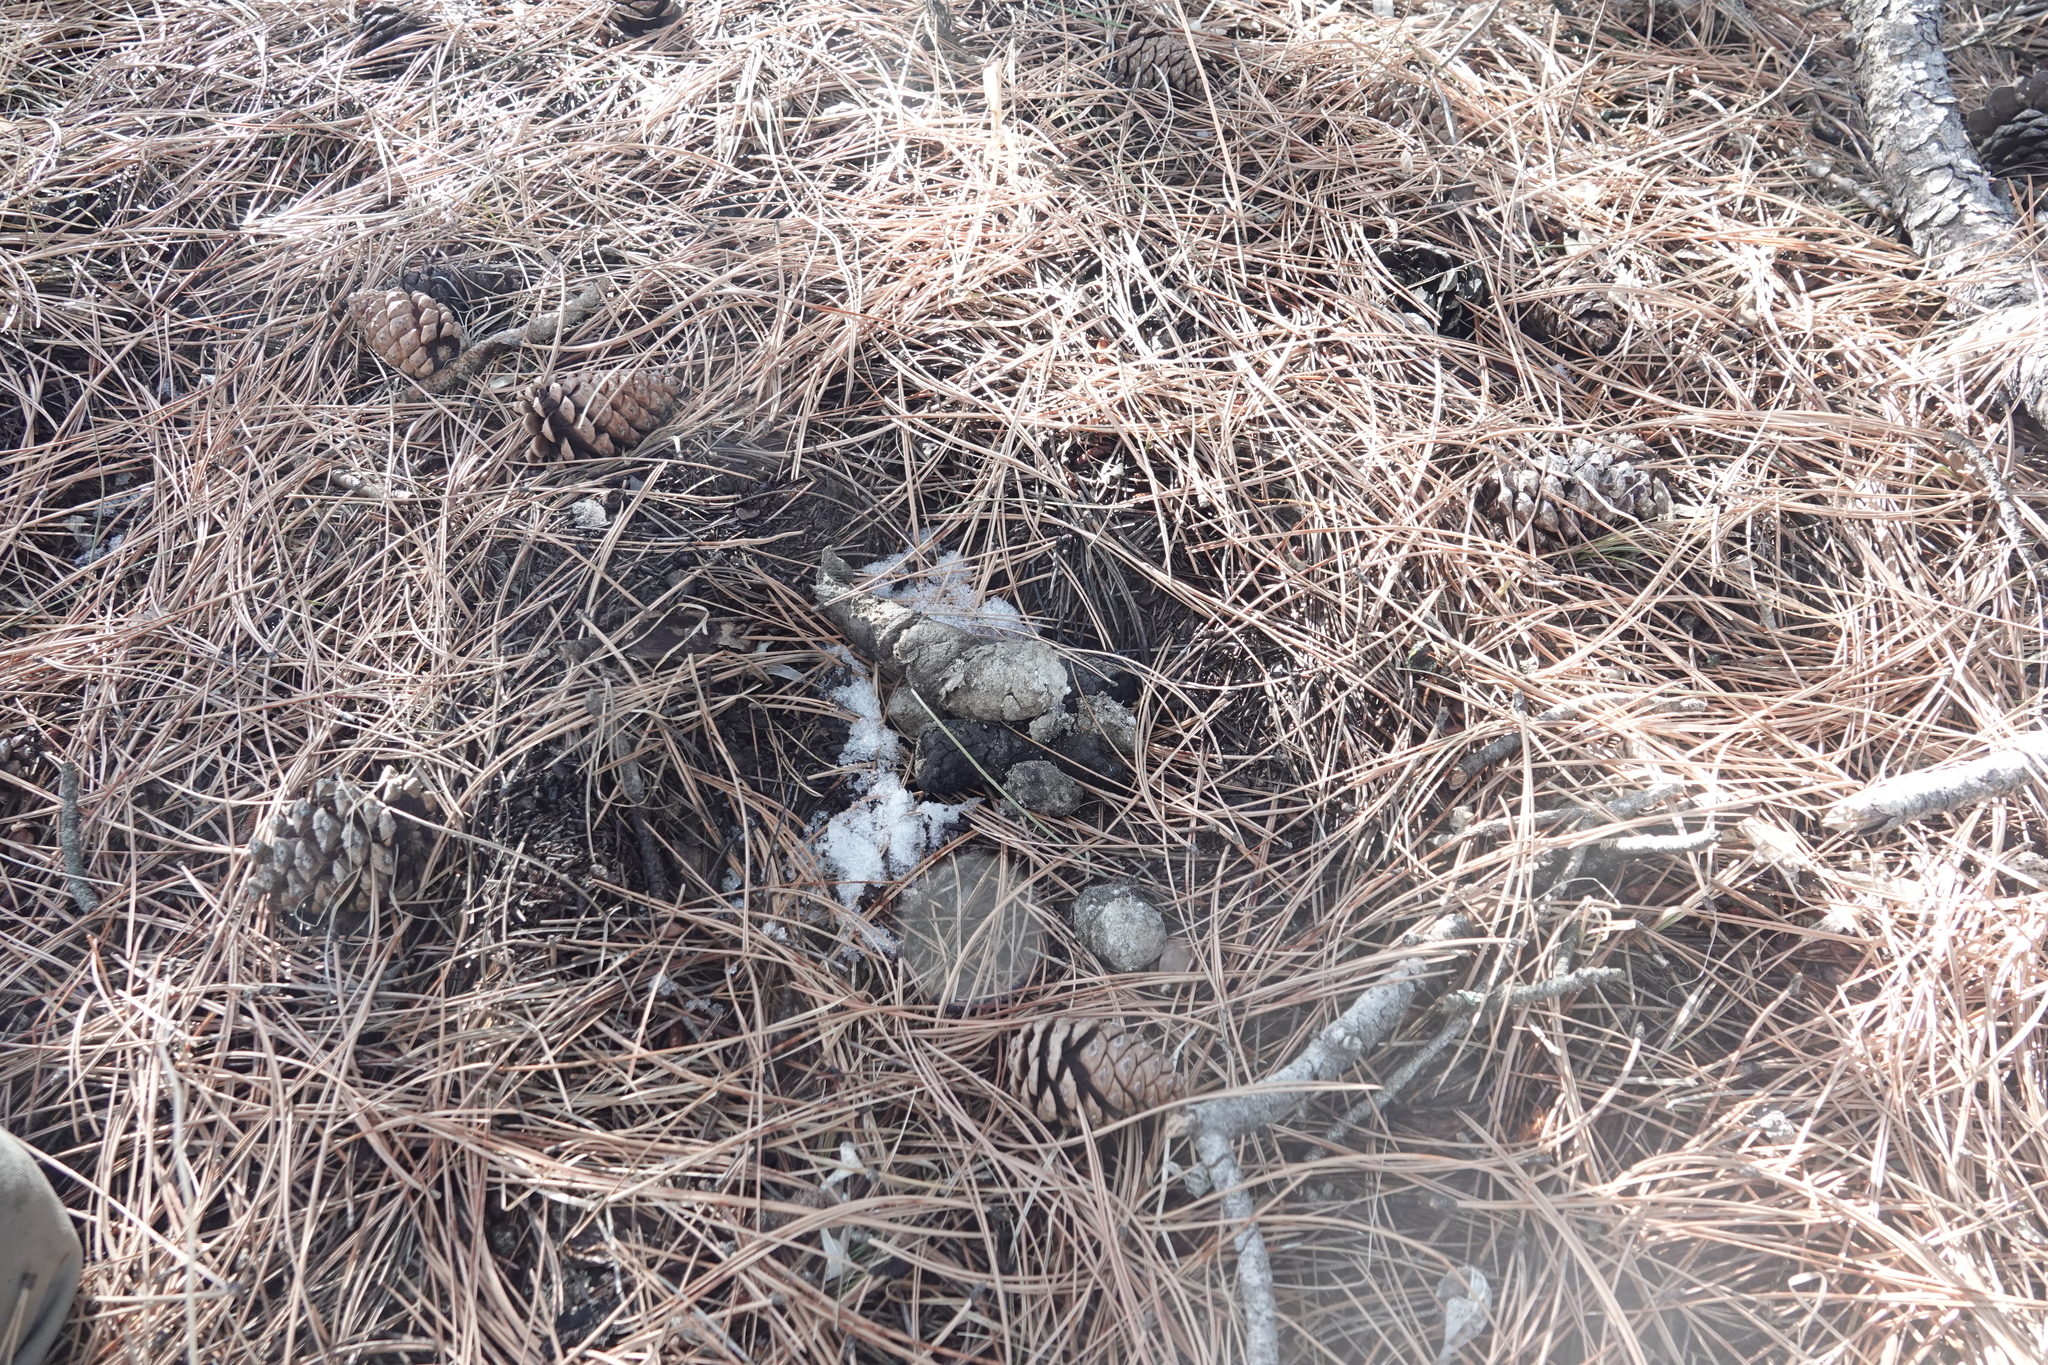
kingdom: Animalia
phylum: Chordata
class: Mammalia
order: Carnivora
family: Felidae
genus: Puma
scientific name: Puma concolor
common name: Puma
